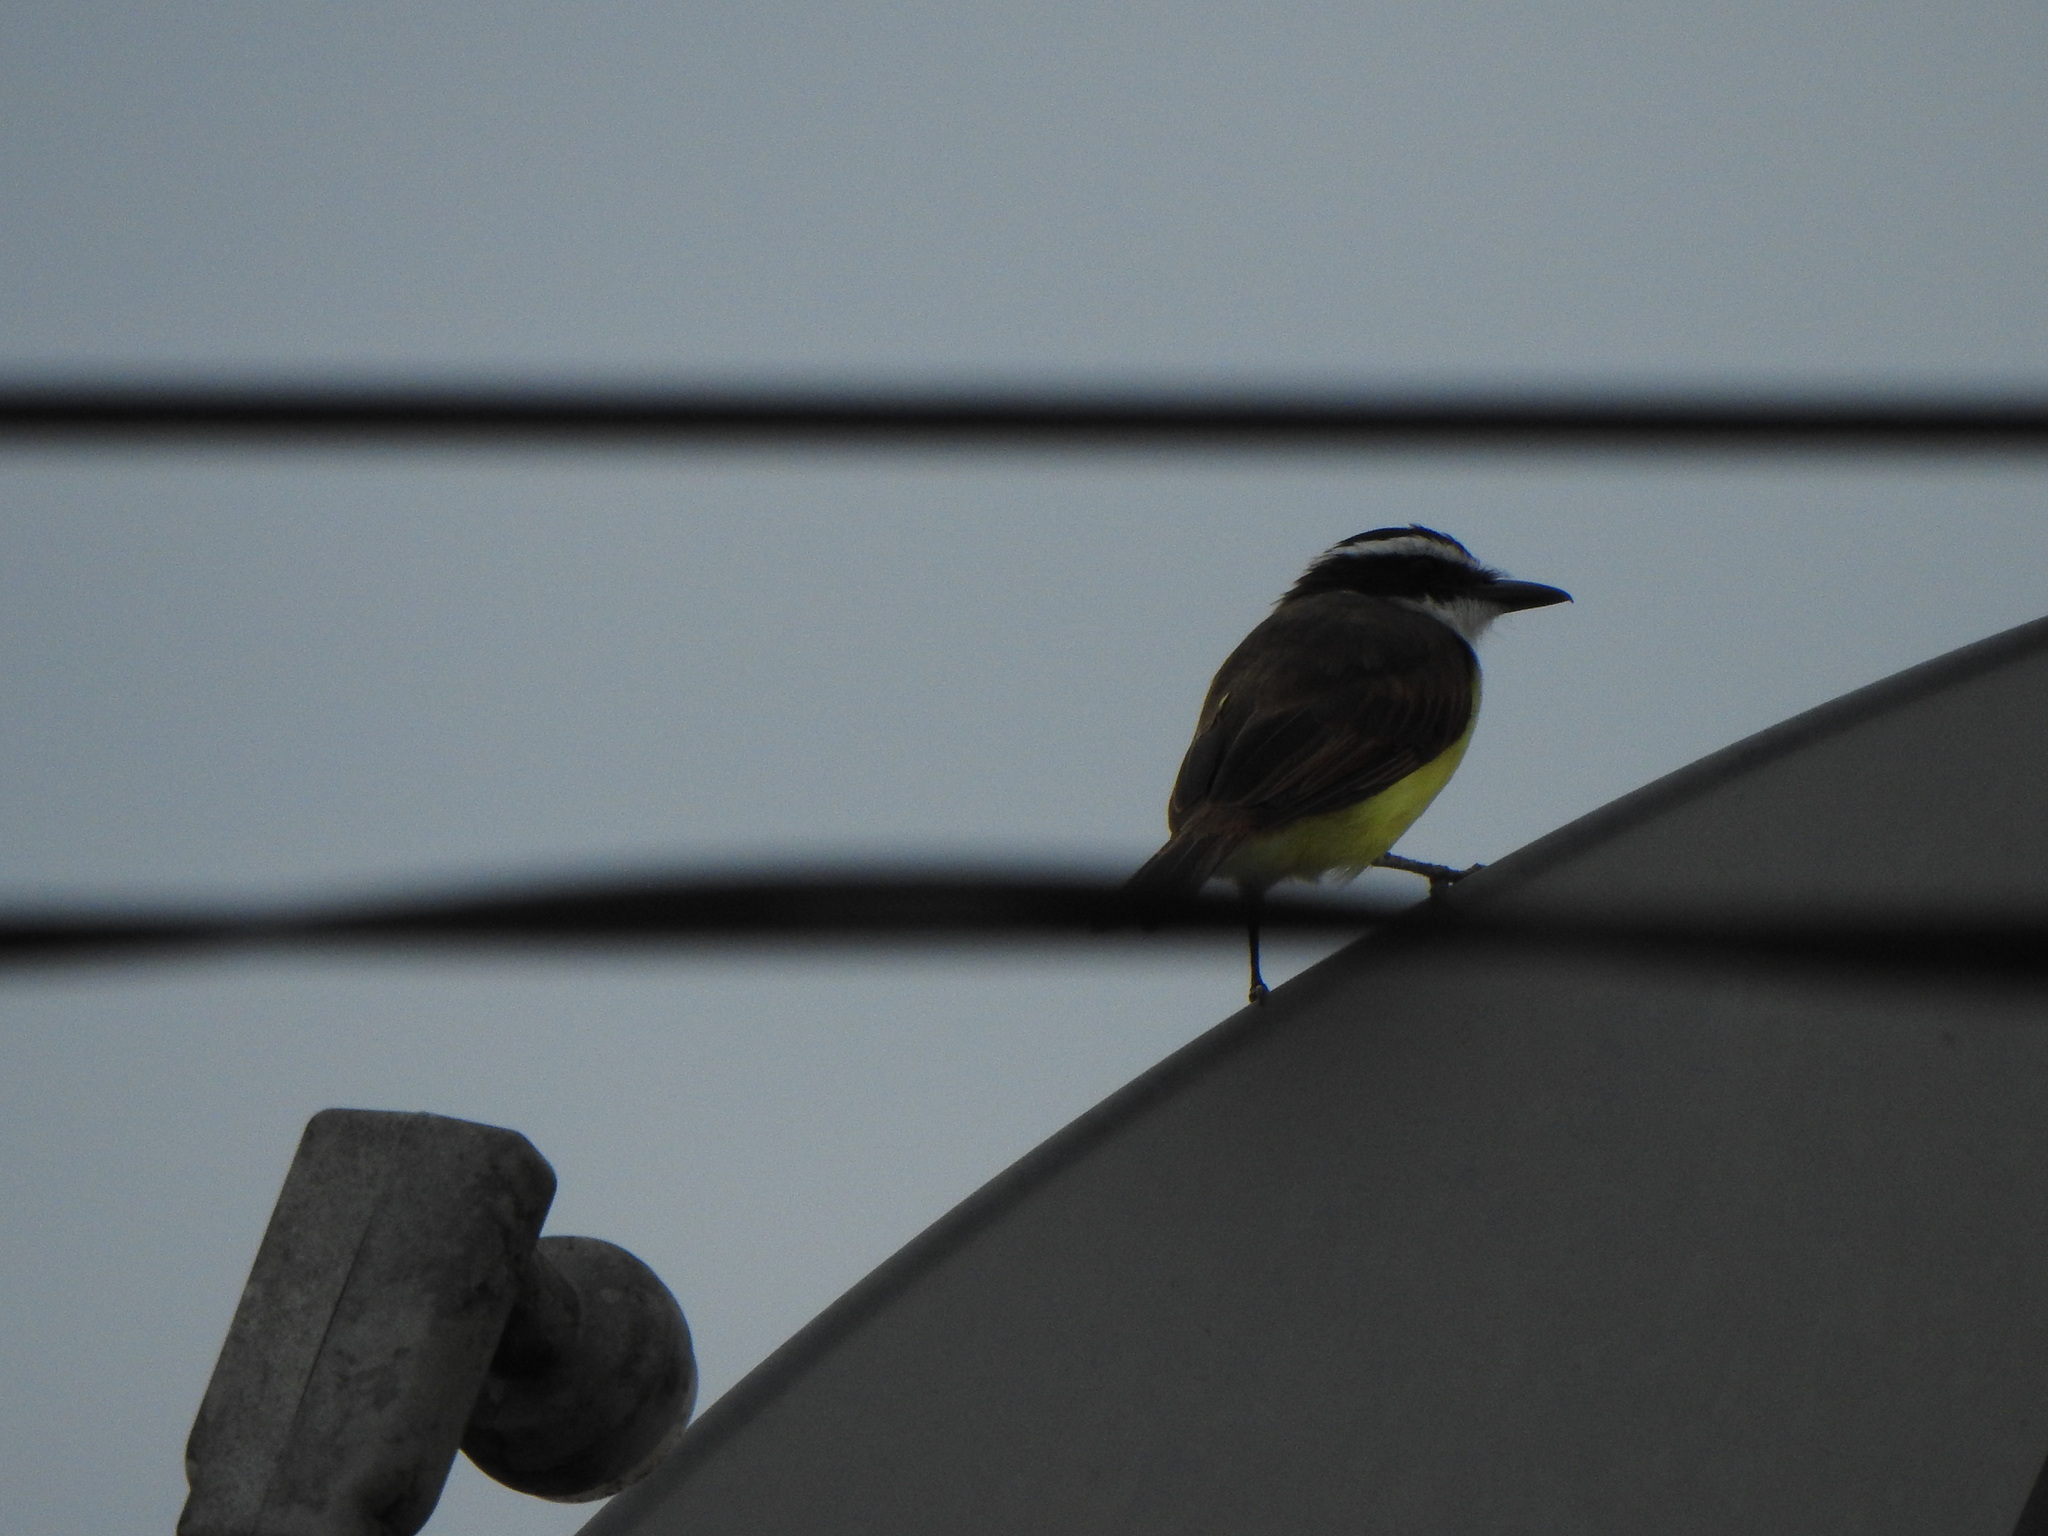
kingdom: Animalia
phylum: Chordata
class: Aves
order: Passeriformes
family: Tyrannidae
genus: Pitangus
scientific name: Pitangus sulphuratus
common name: Great kiskadee
